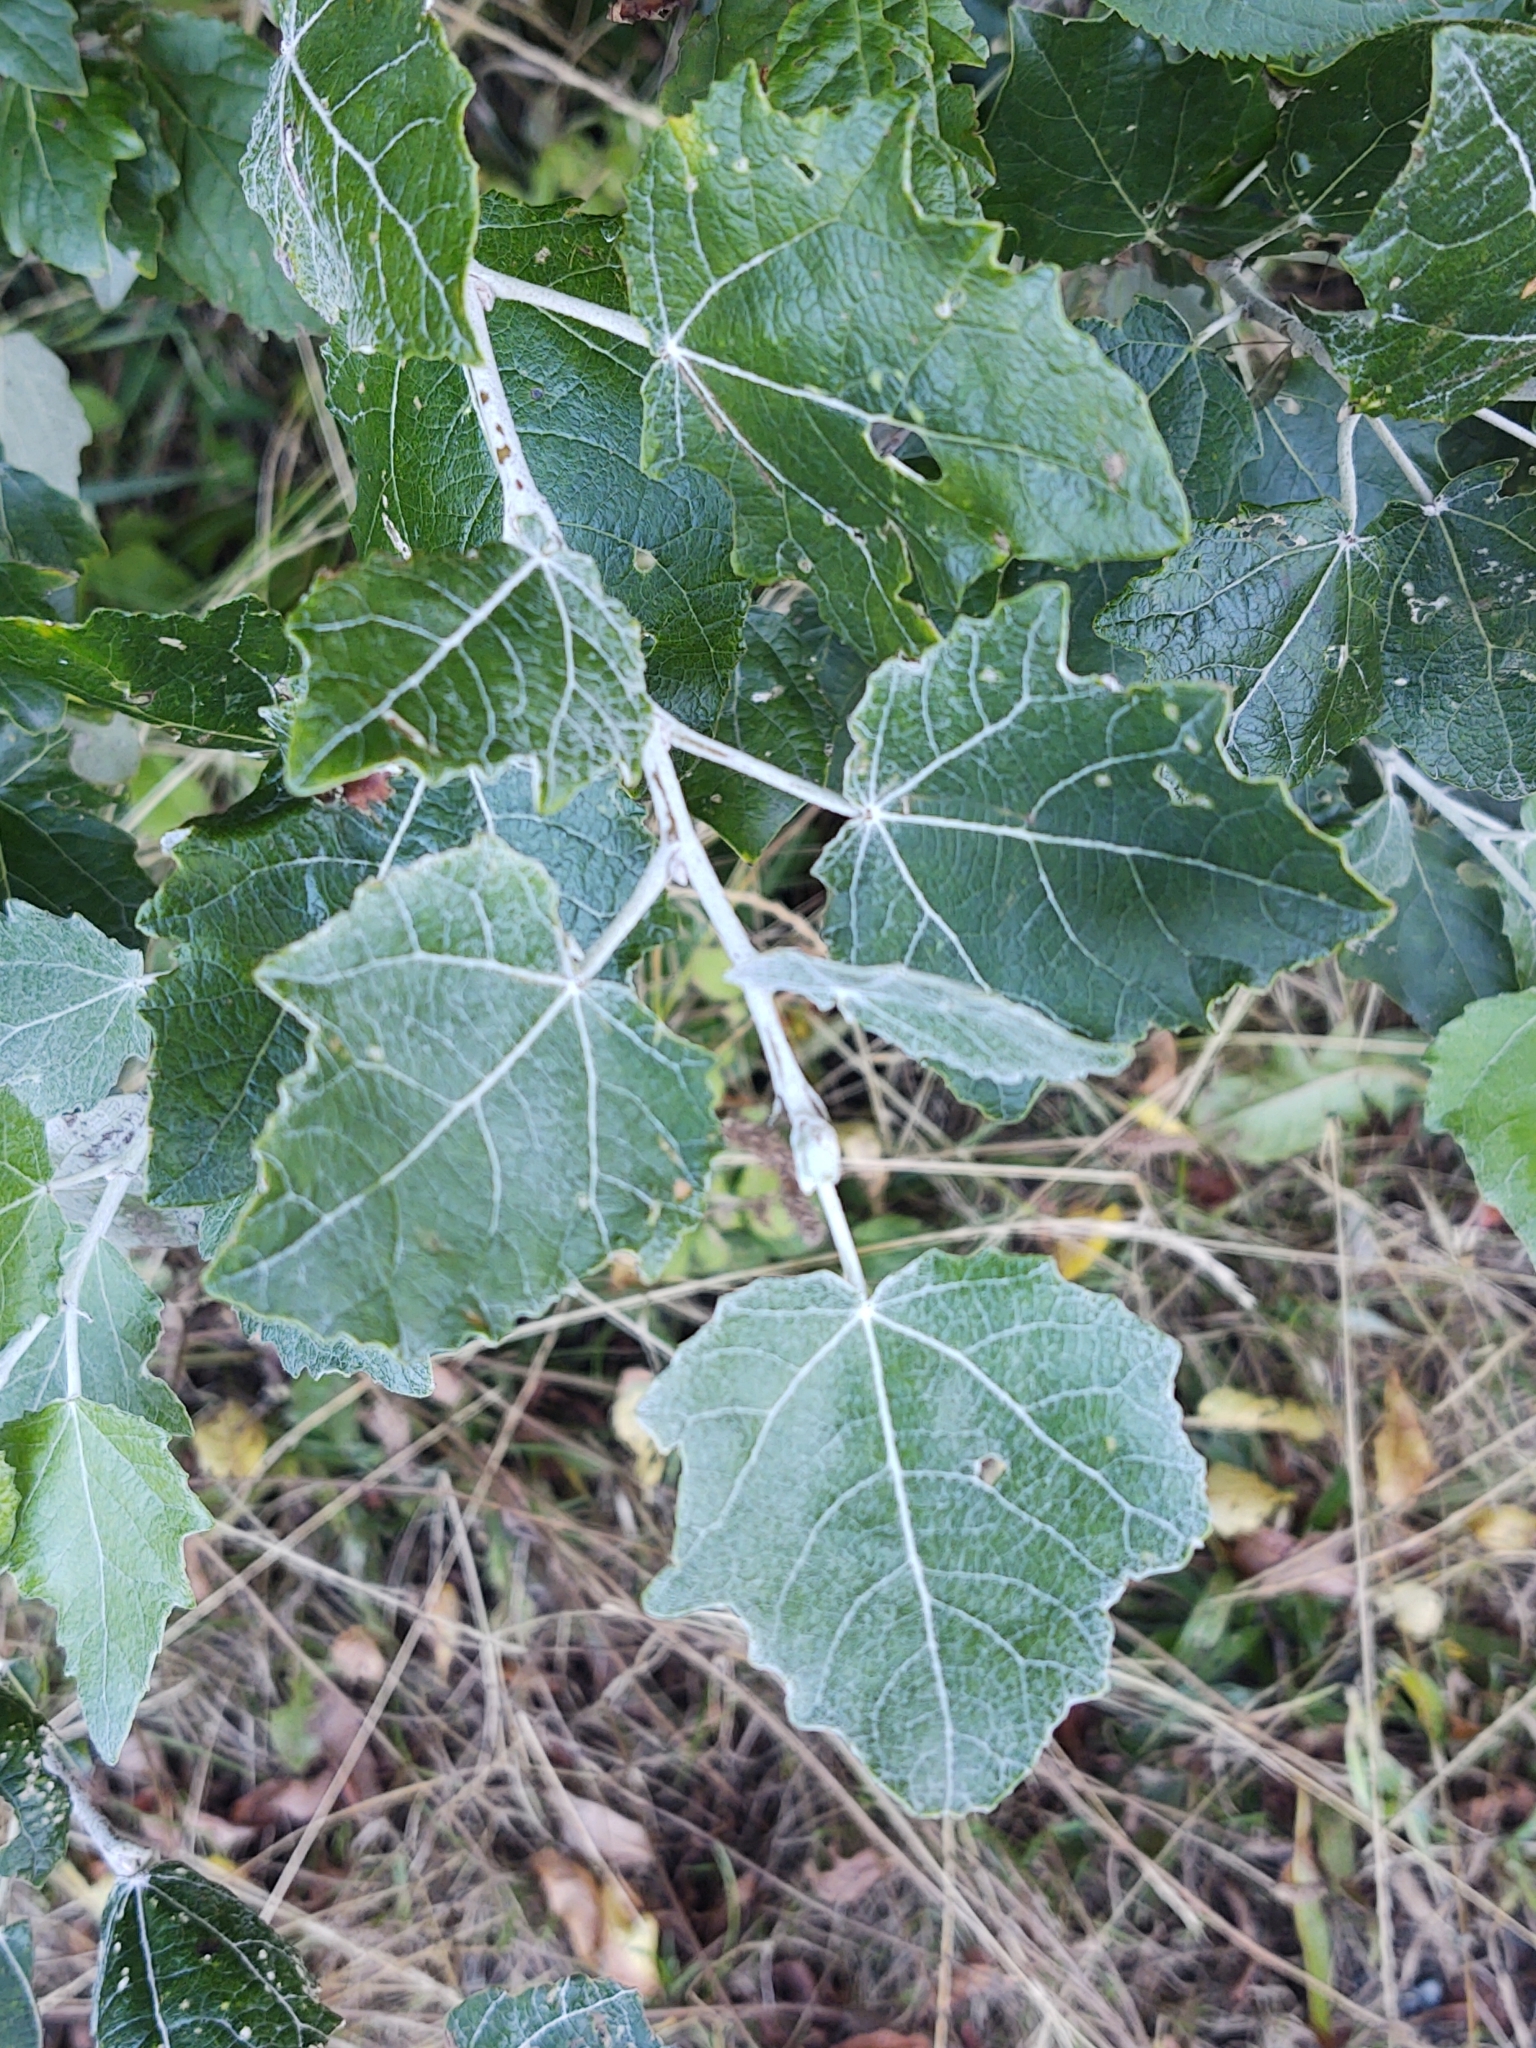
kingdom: Plantae
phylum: Tracheophyta
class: Magnoliopsida
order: Malpighiales
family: Salicaceae
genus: Populus
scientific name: Populus alba
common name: White poplar
